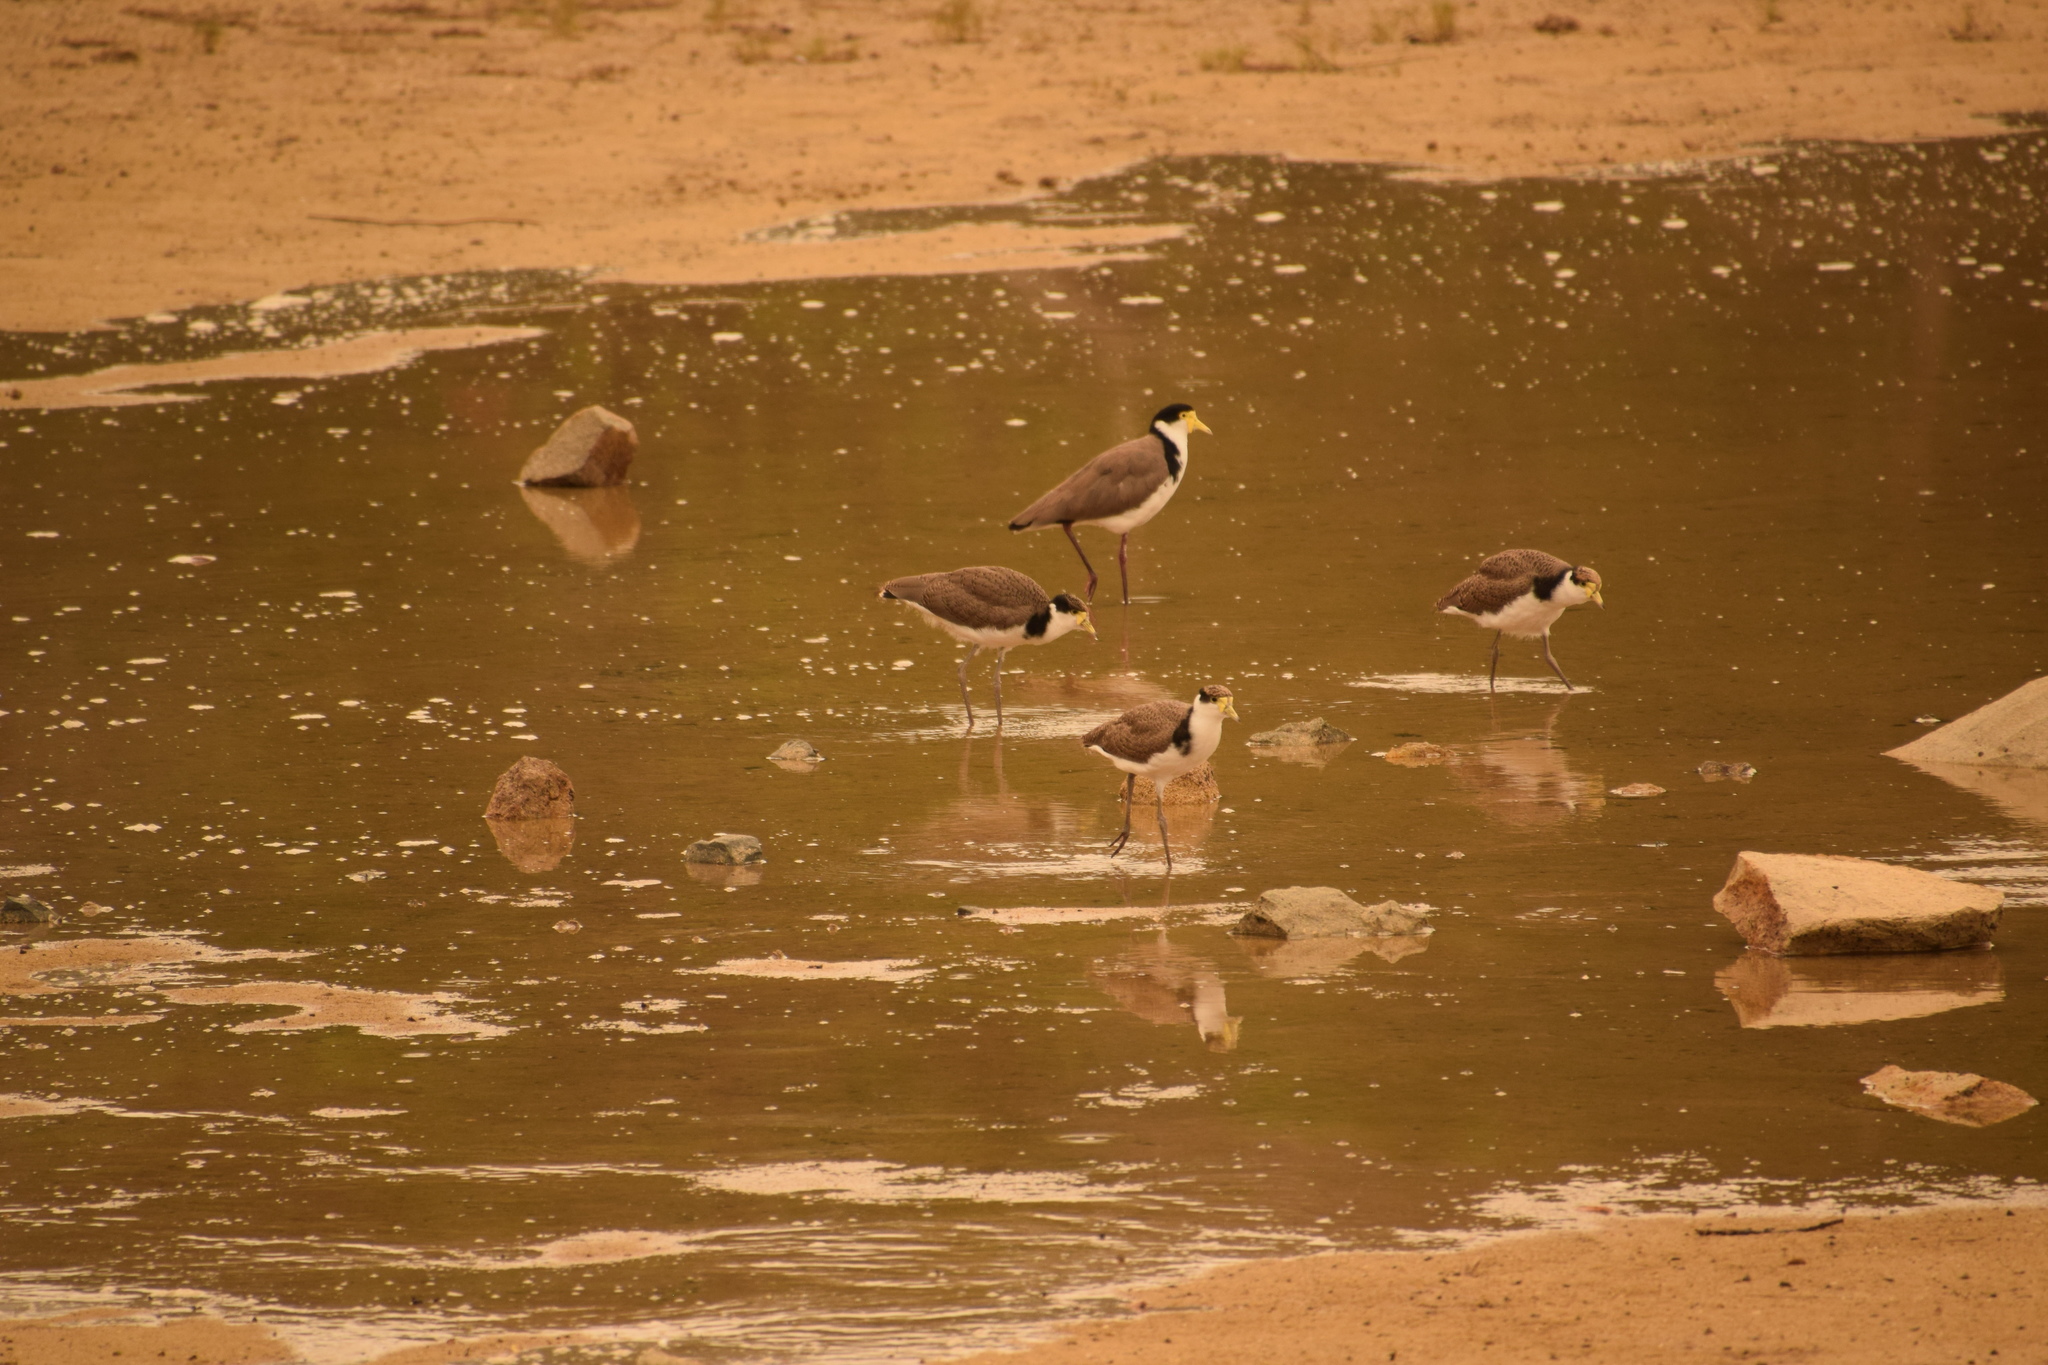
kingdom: Animalia
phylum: Chordata
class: Aves
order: Charadriiformes
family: Charadriidae
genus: Vanellus
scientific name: Vanellus miles
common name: Masked lapwing
